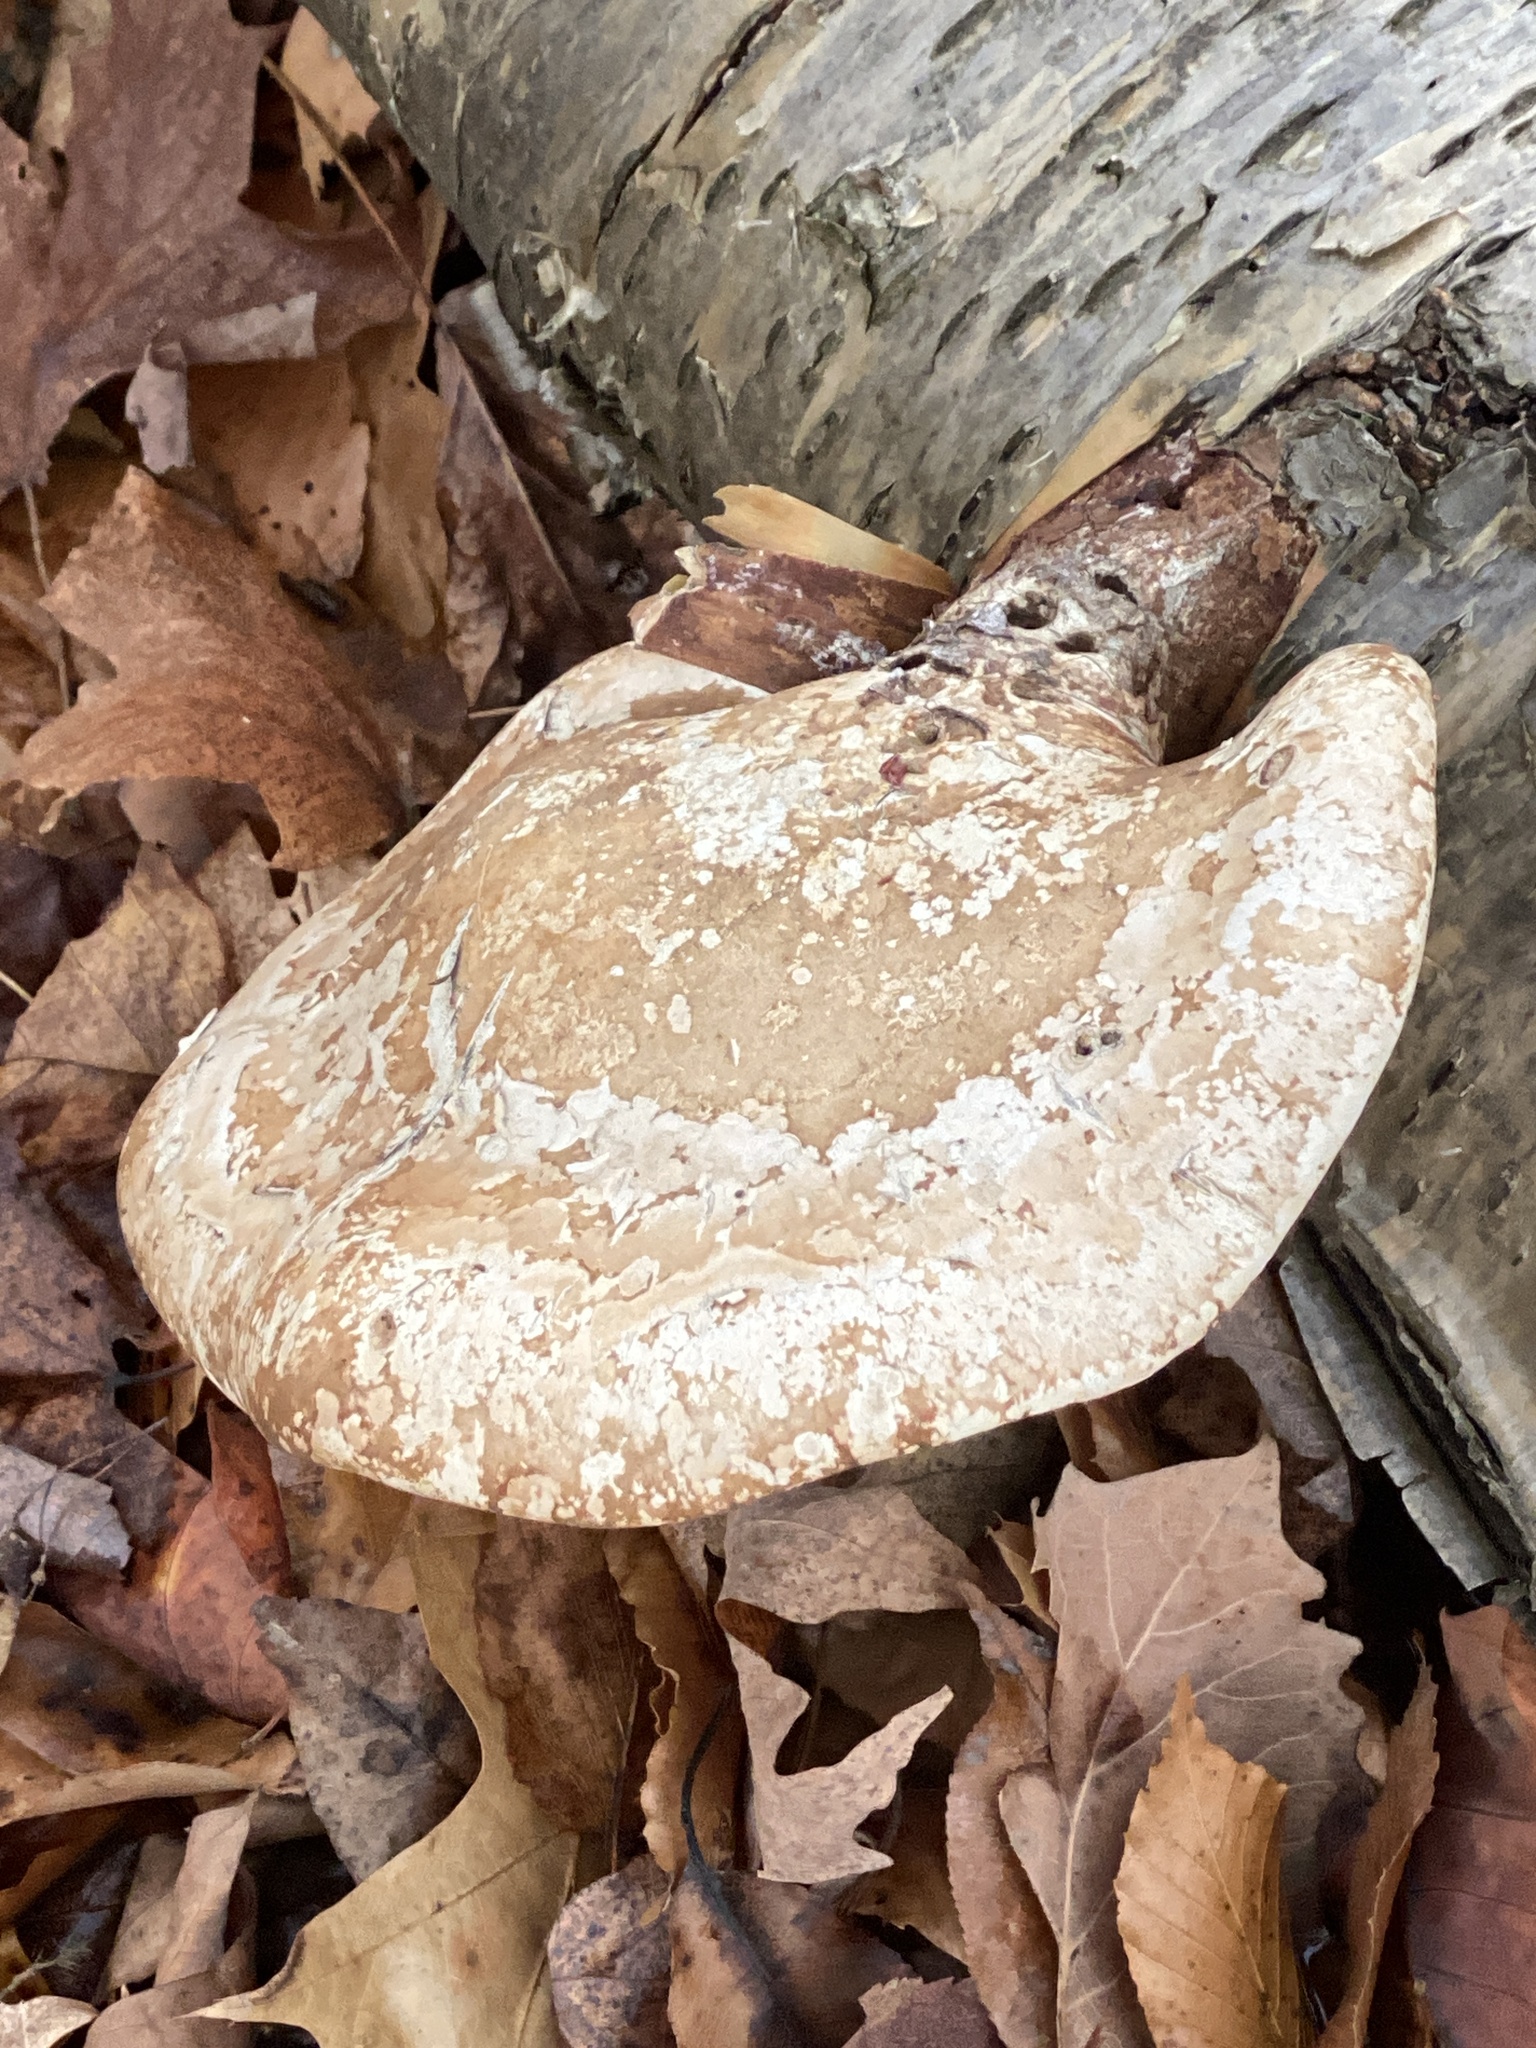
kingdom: Fungi
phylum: Basidiomycota
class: Agaricomycetes
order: Polyporales
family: Fomitopsidaceae
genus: Fomitopsis
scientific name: Fomitopsis betulina
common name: Birch polypore
